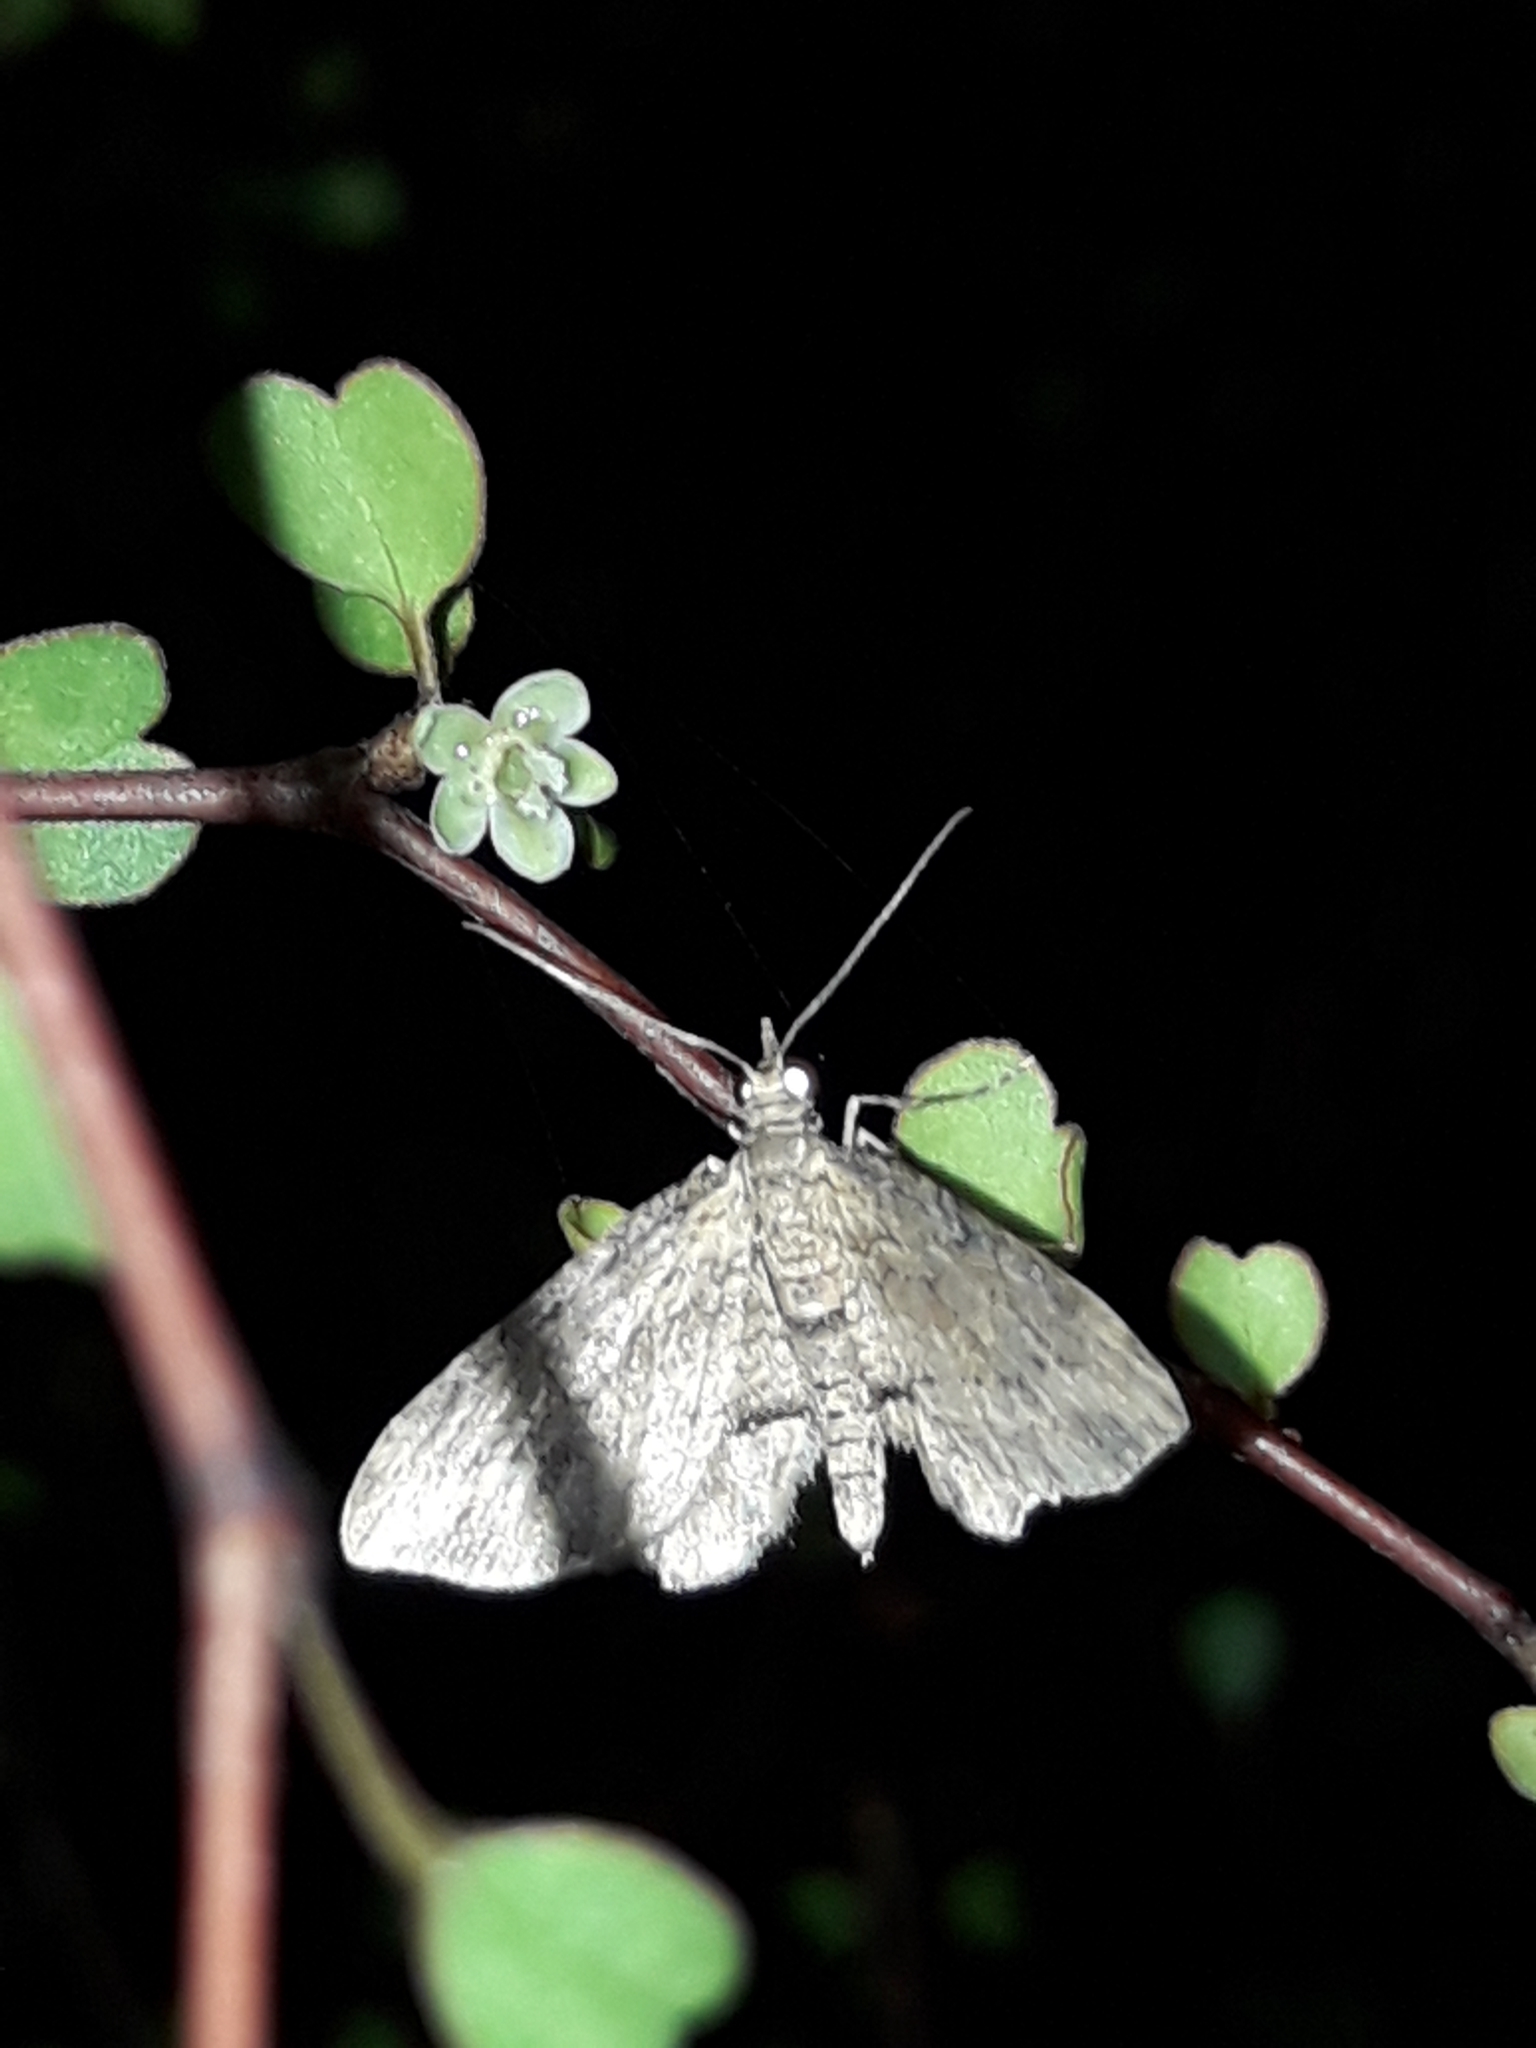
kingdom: Animalia
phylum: Arthropoda
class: Insecta
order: Lepidoptera
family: Geometridae
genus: Chloroclystis
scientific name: Chloroclystis filata
